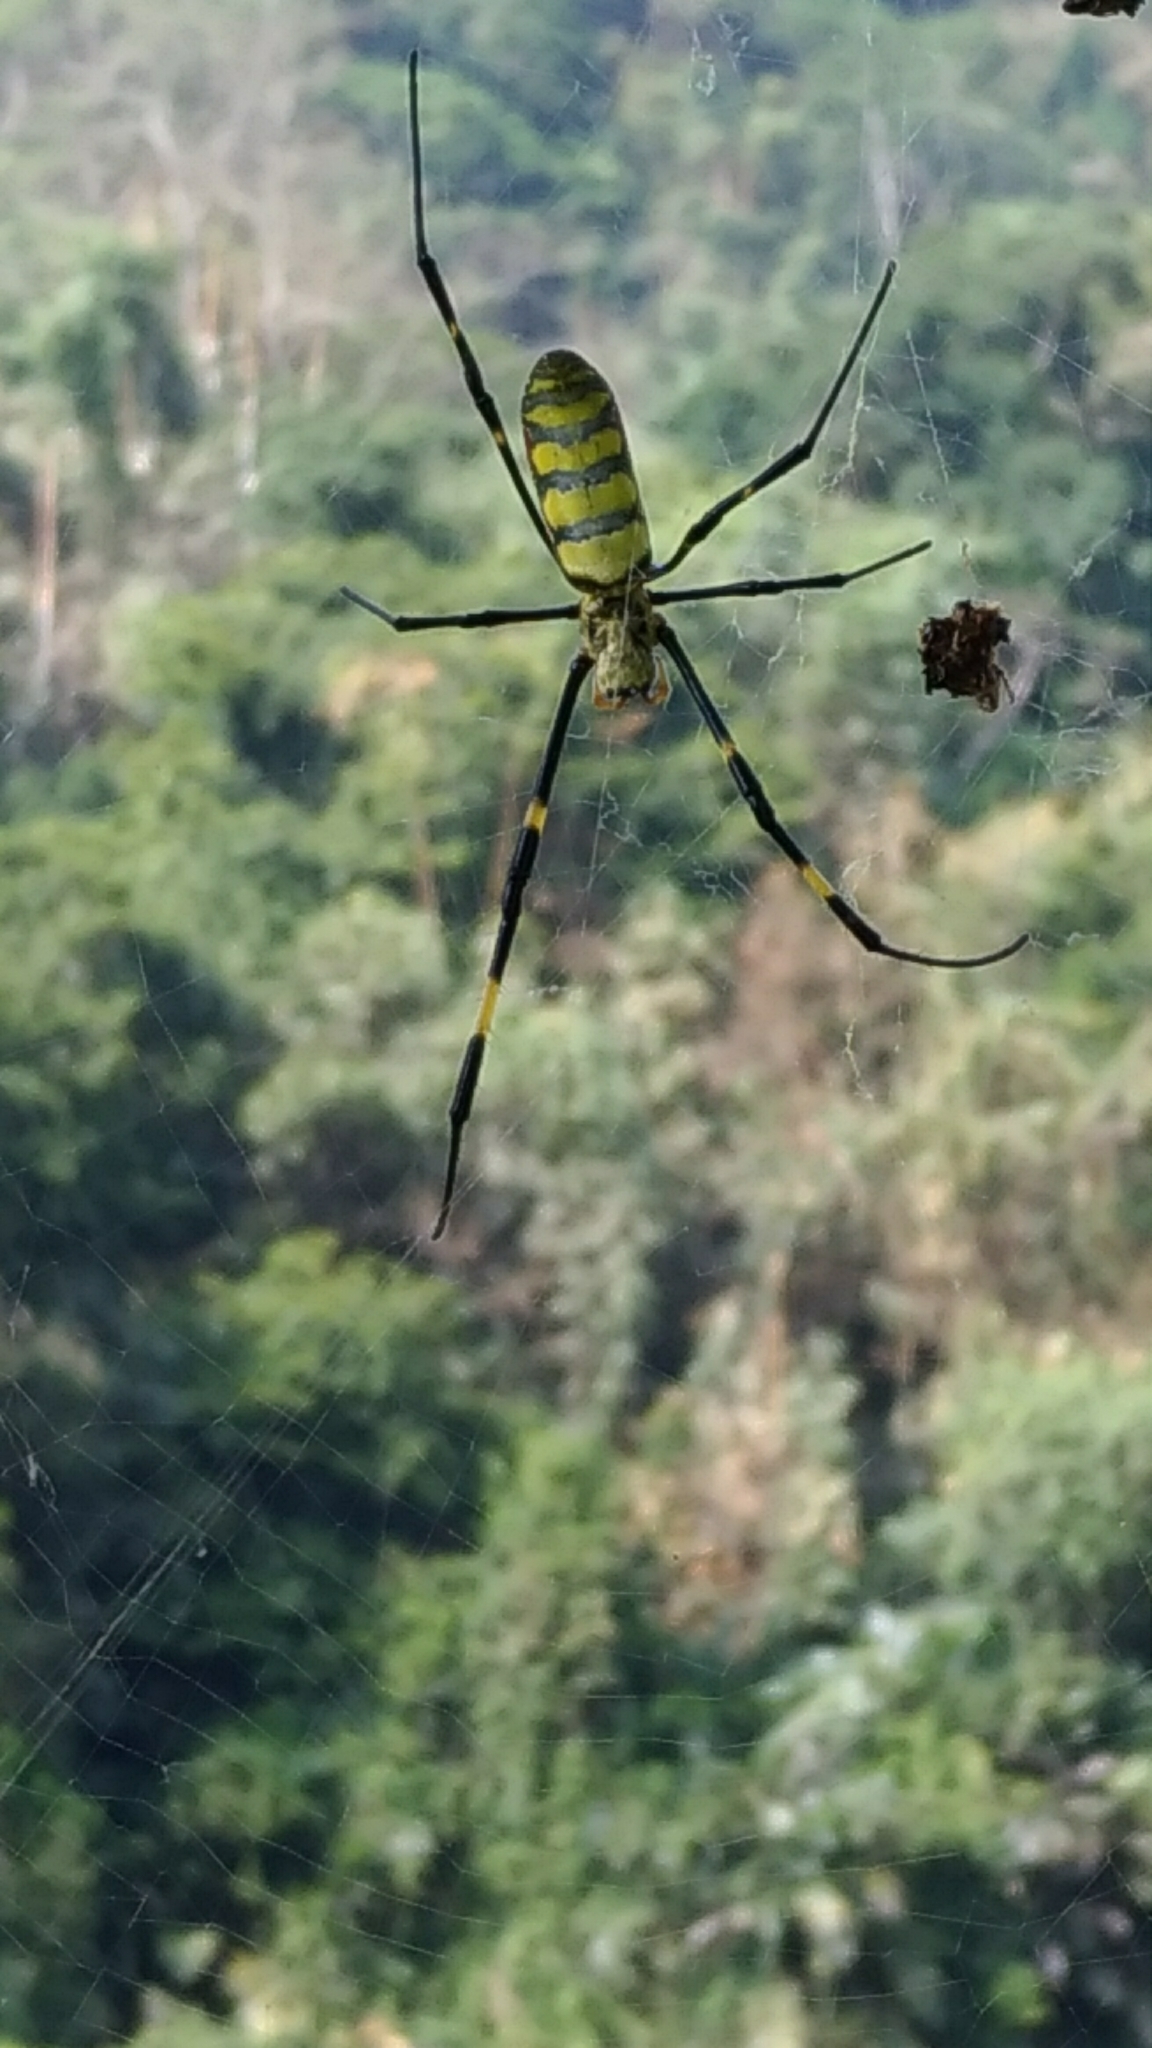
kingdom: Animalia
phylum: Arthropoda
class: Arachnida
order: Araneae
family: Araneidae
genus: Trichonephila
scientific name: Trichonephila clavata
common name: Jorō spider
